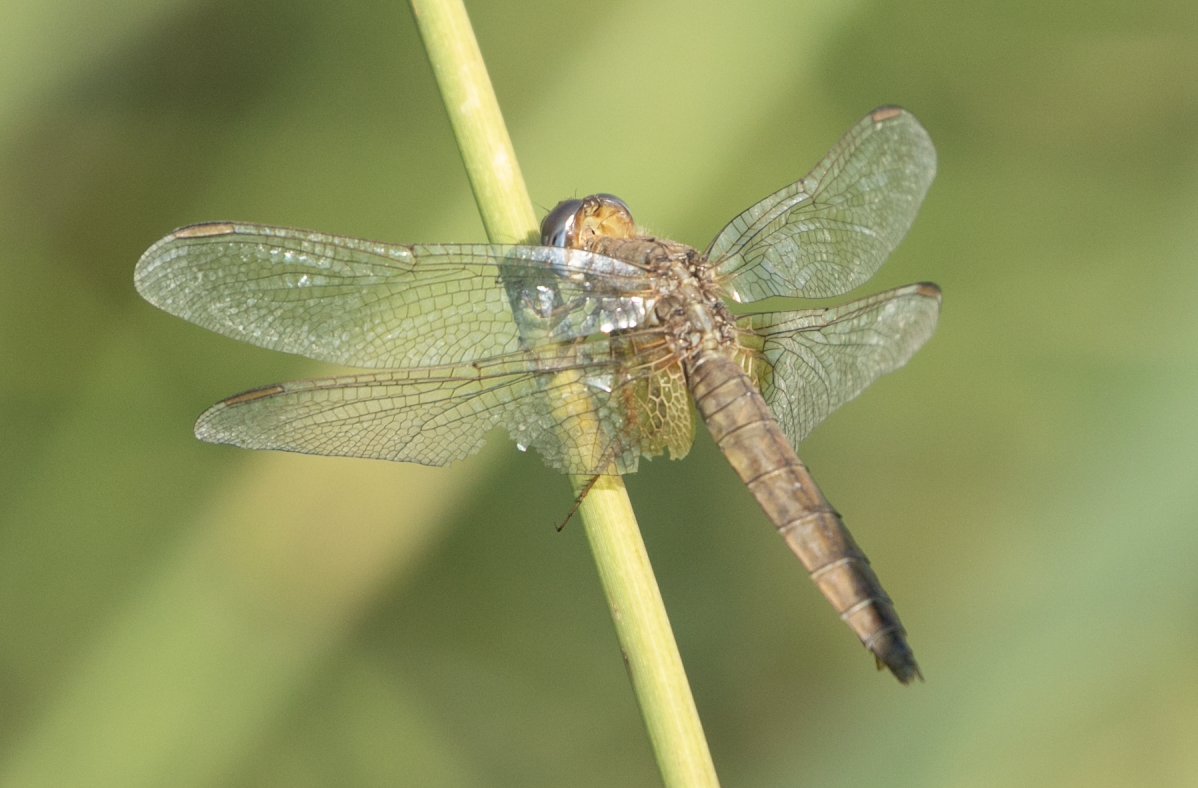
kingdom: Animalia
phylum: Arthropoda
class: Insecta
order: Odonata
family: Libellulidae
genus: Crocothemis
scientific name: Crocothemis erythraea
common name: Scarlet dragonfly
